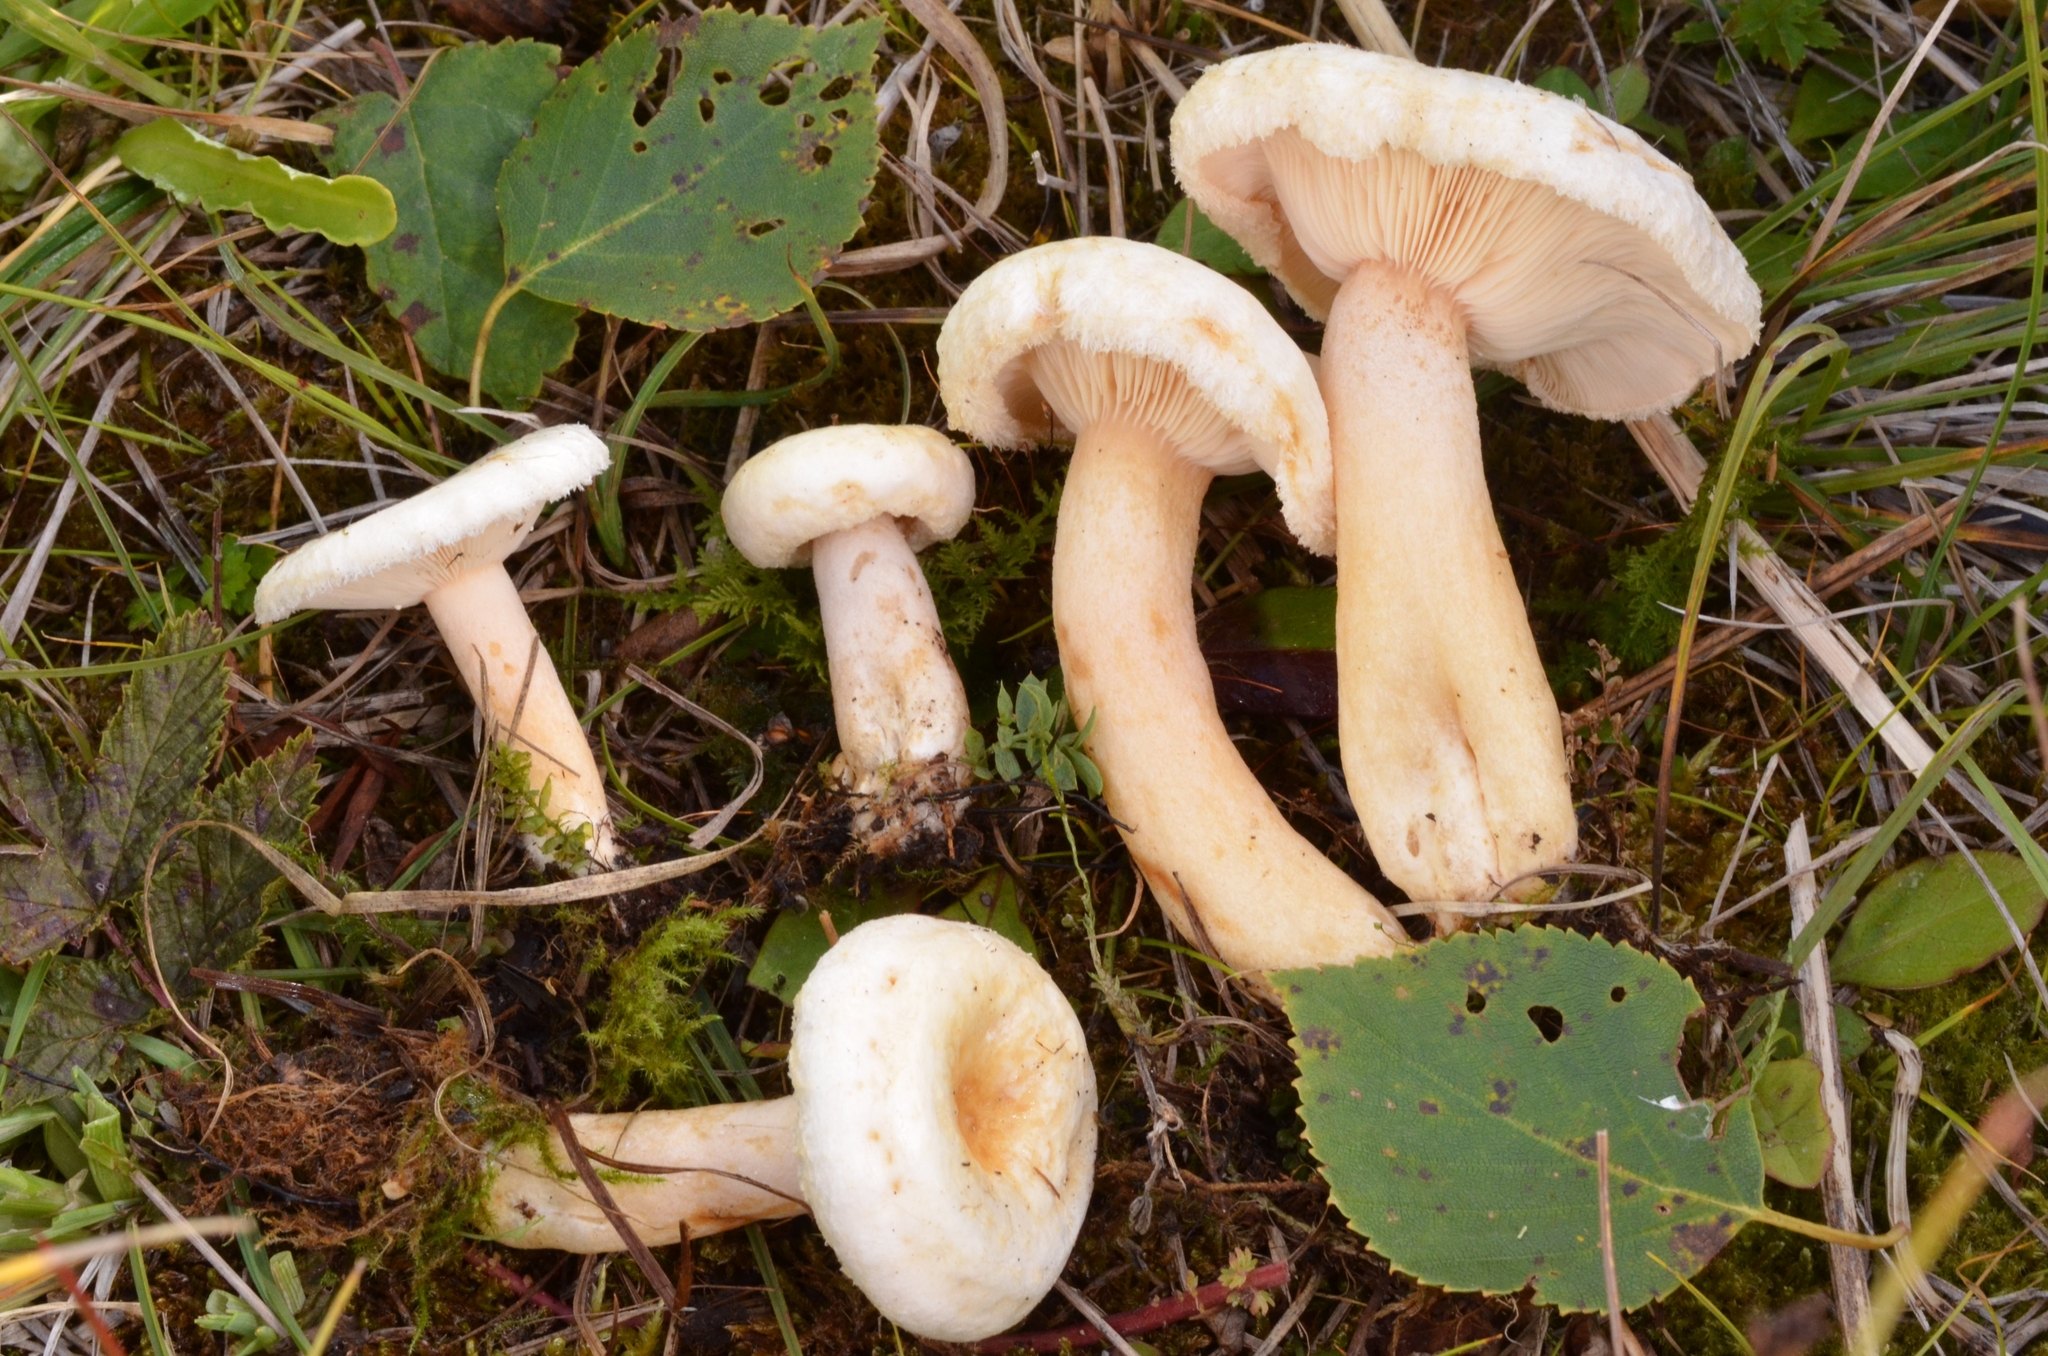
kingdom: Fungi
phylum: Basidiomycota
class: Agaricomycetes
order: Russulales
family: Russulaceae
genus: Lactarius
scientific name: Lactarius scoticus
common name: Hoary milkcap
